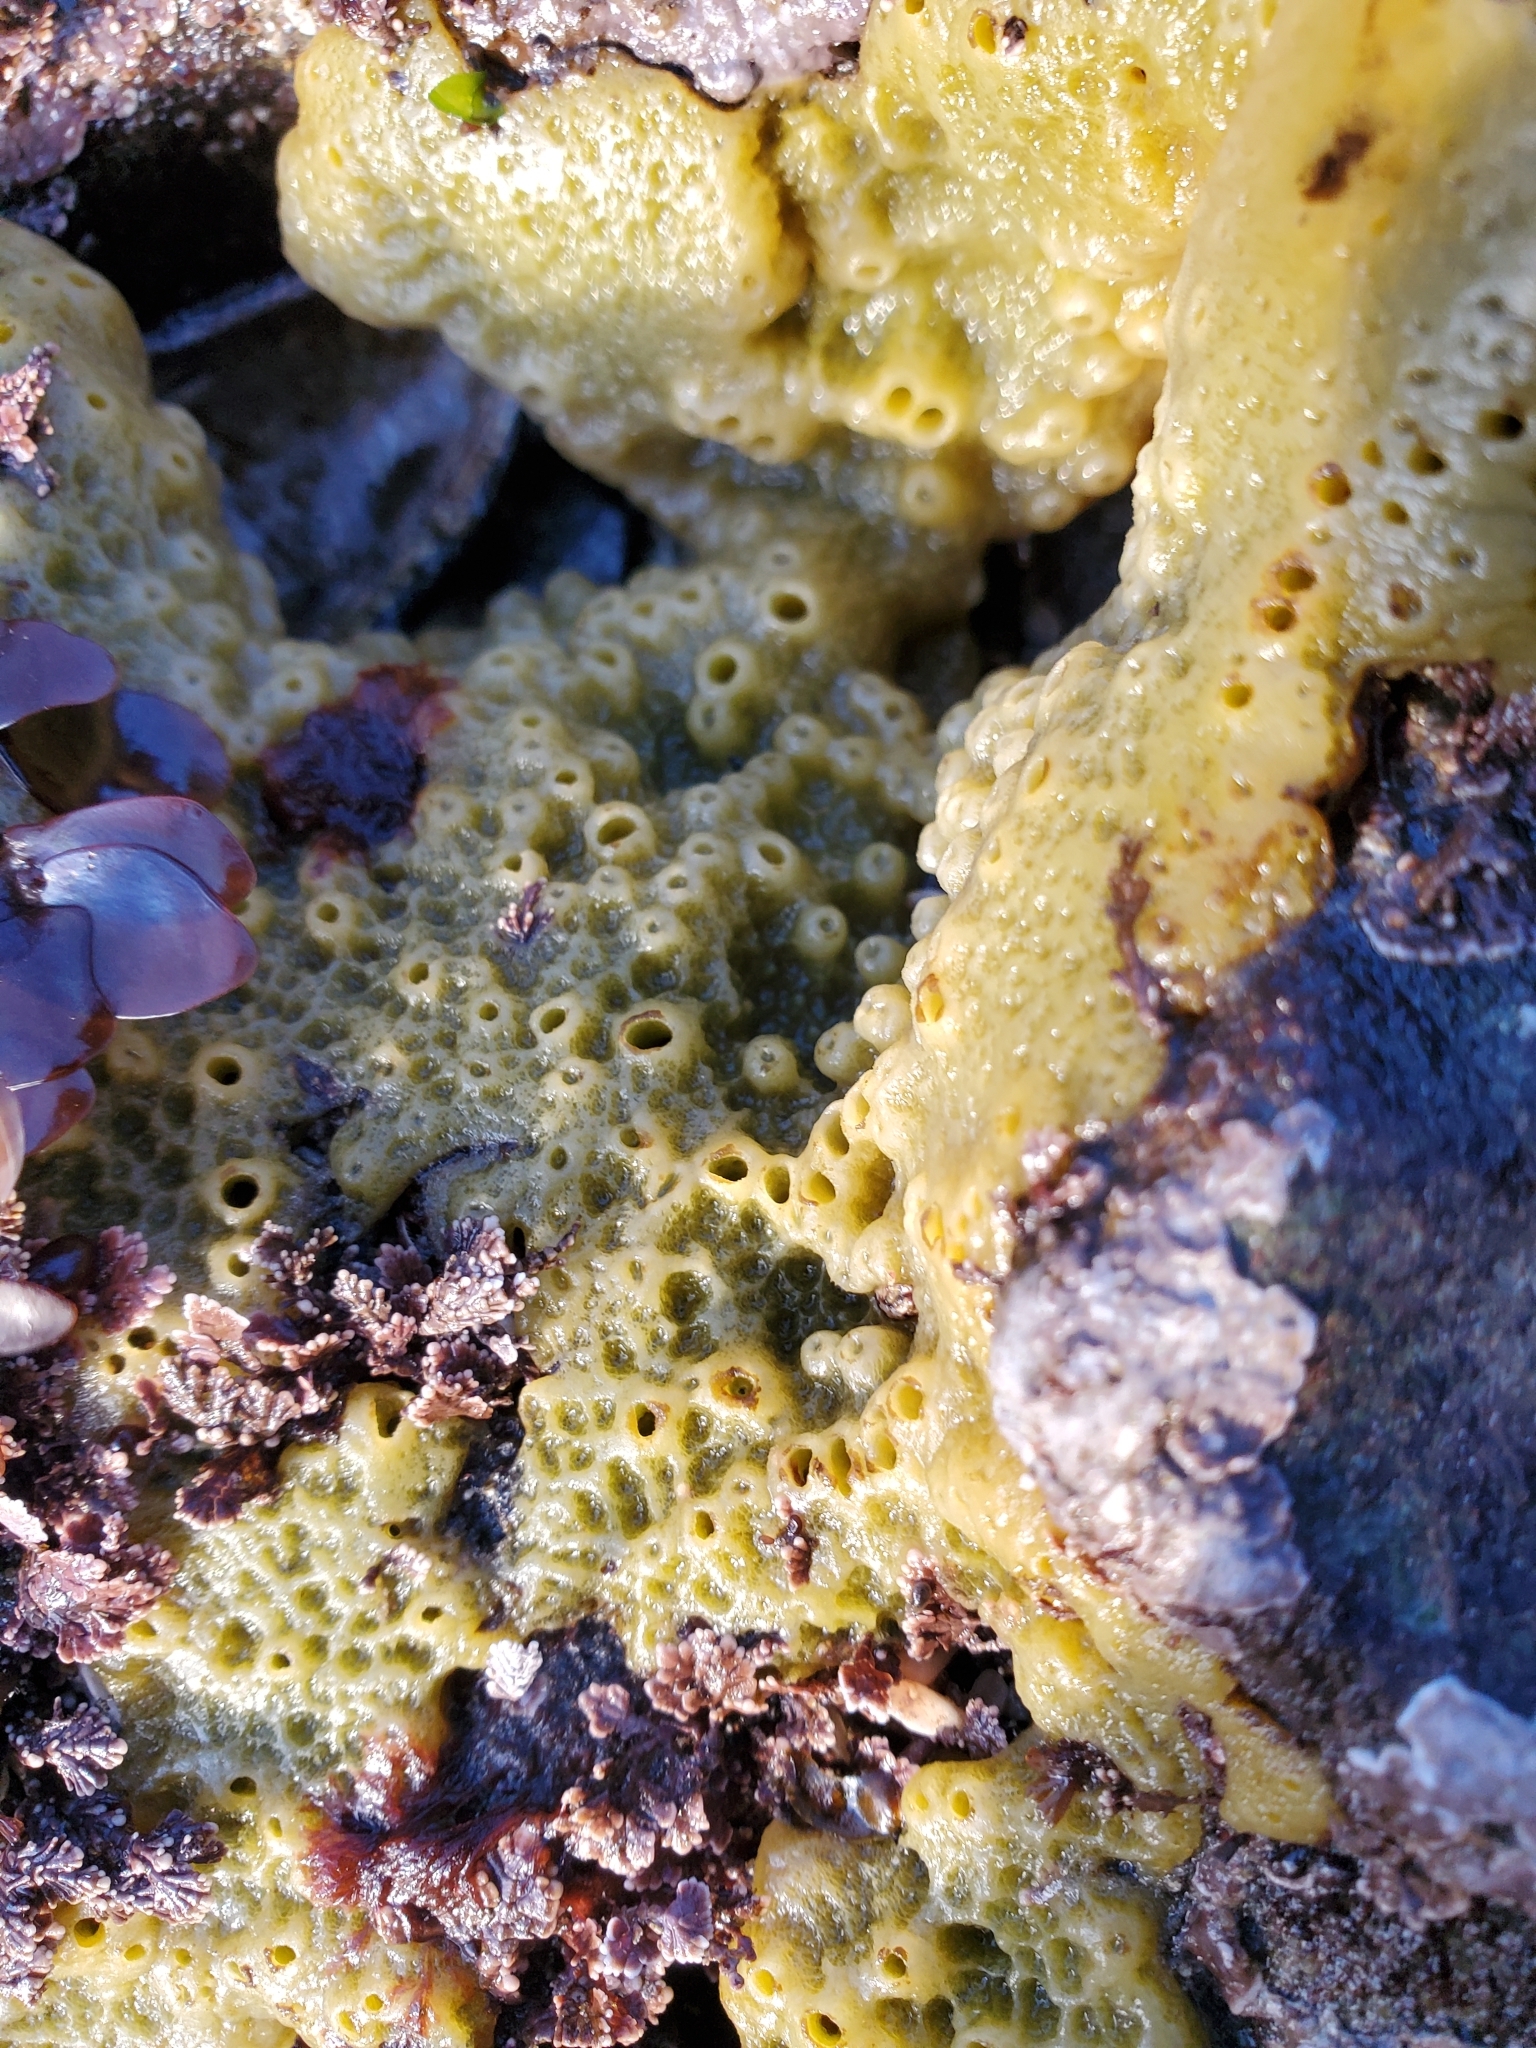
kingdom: Animalia
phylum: Porifera
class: Demospongiae
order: Suberitida
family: Halichondriidae
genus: Halichondria
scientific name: Halichondria panicea
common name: Breadcrumb sponge
